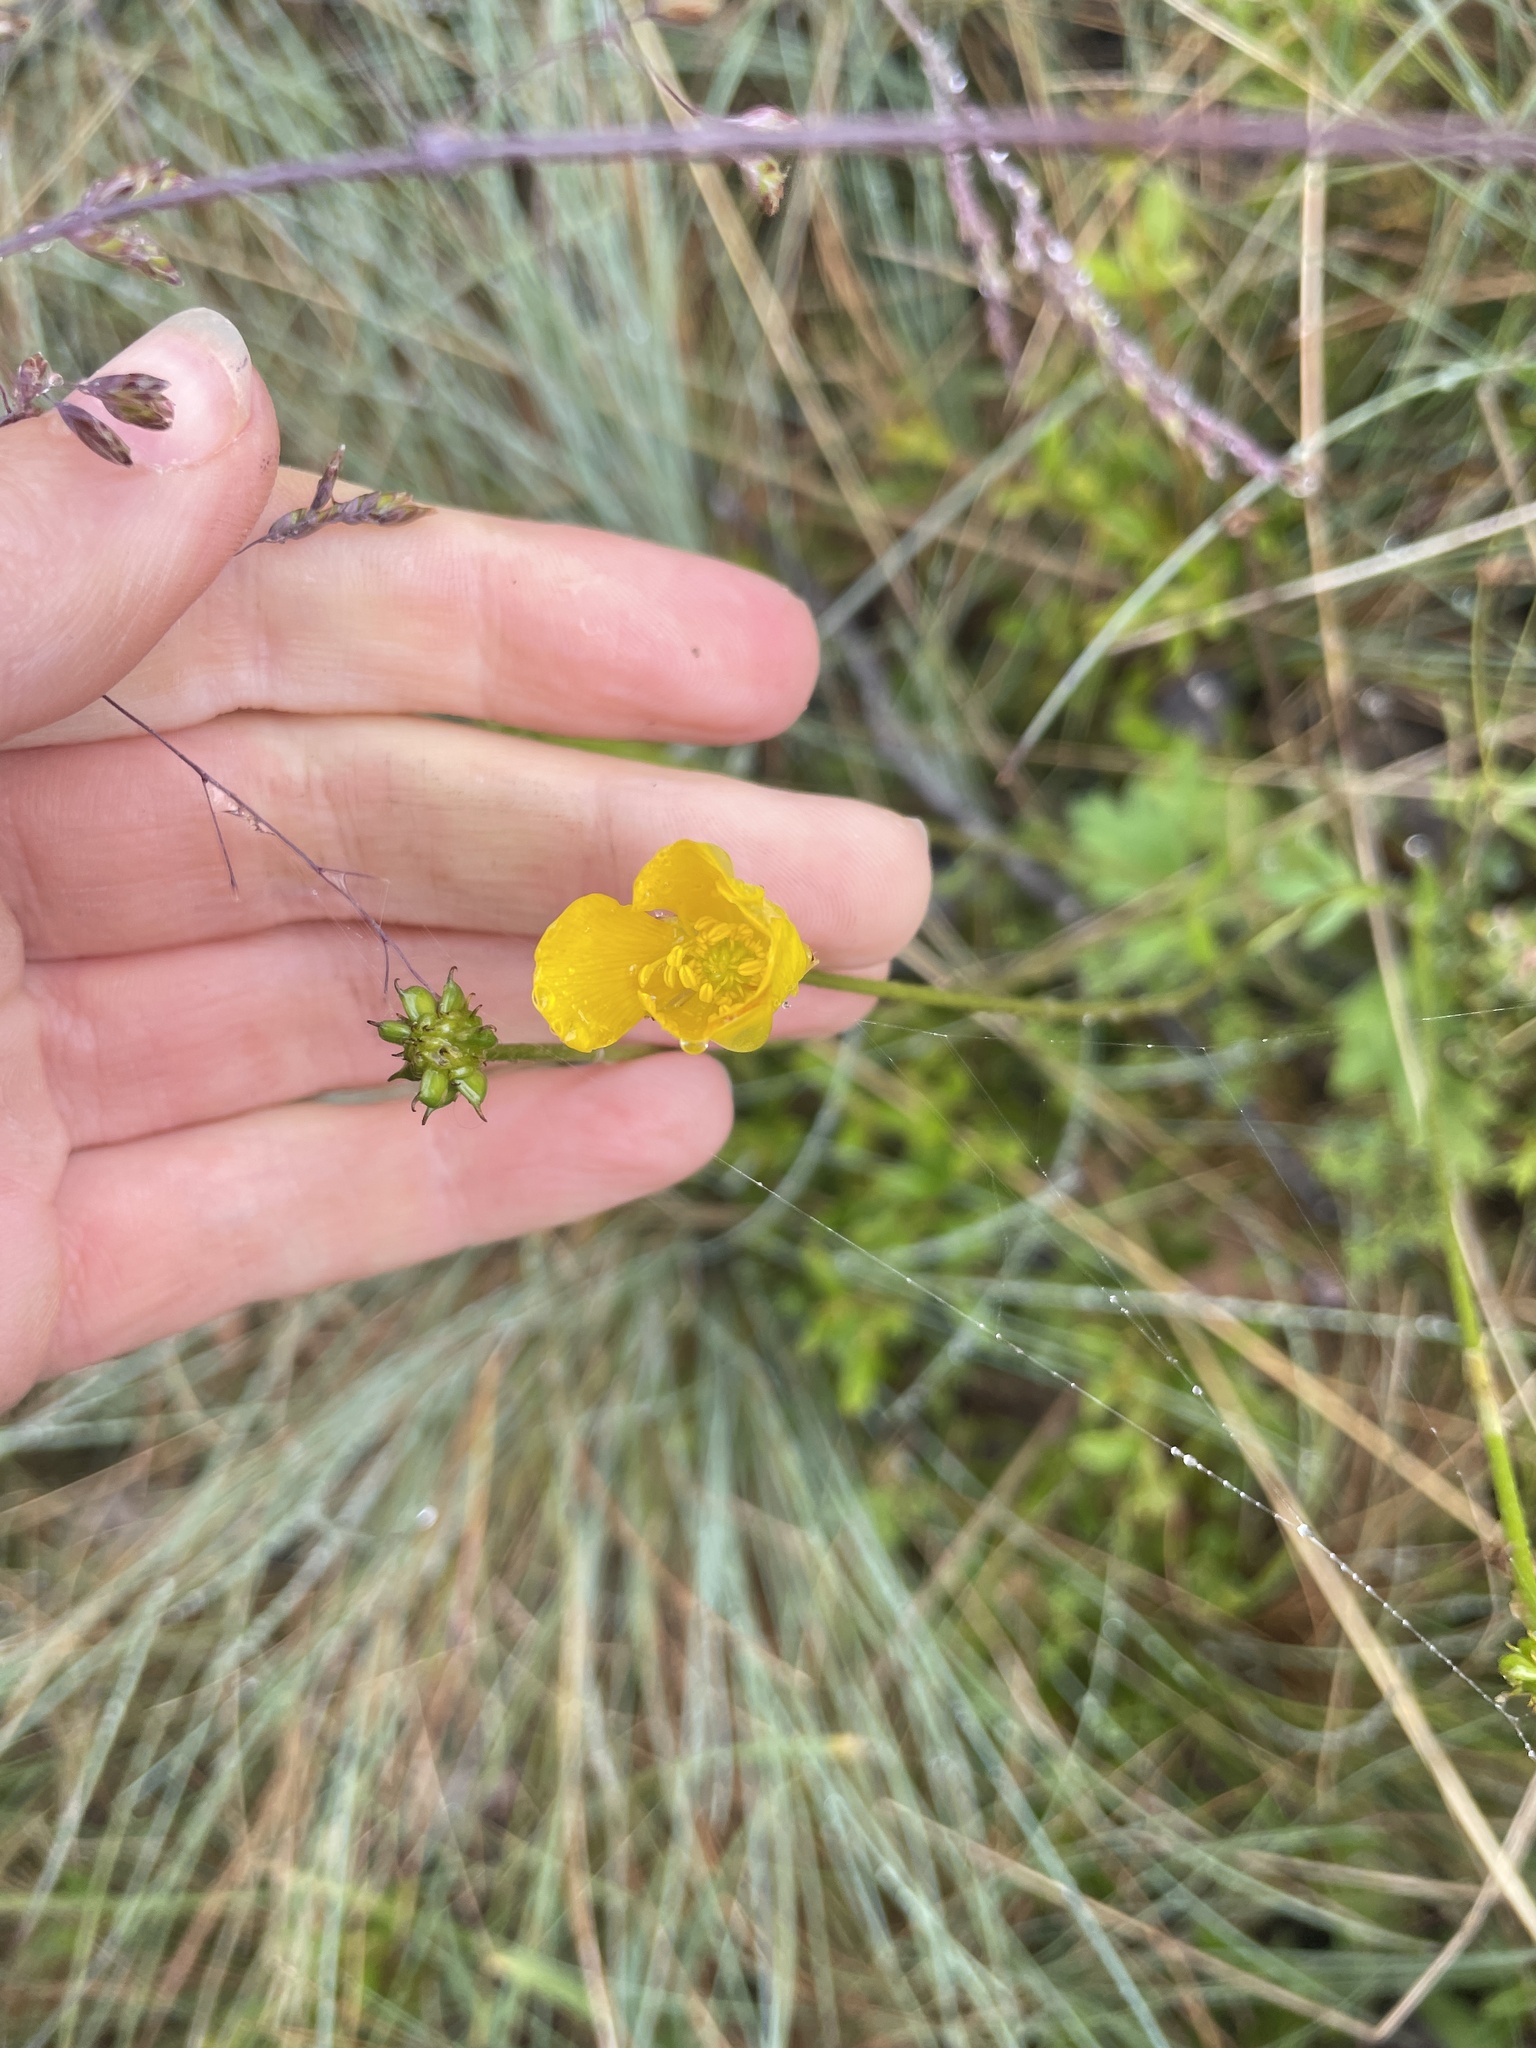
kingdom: Plantae
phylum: Tracheophyta
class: Magnoliopsida
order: Ranunculales
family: Ranunculaceae
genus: Ranunculus
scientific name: Ranunculus lappaceus
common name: Australian buttercup
